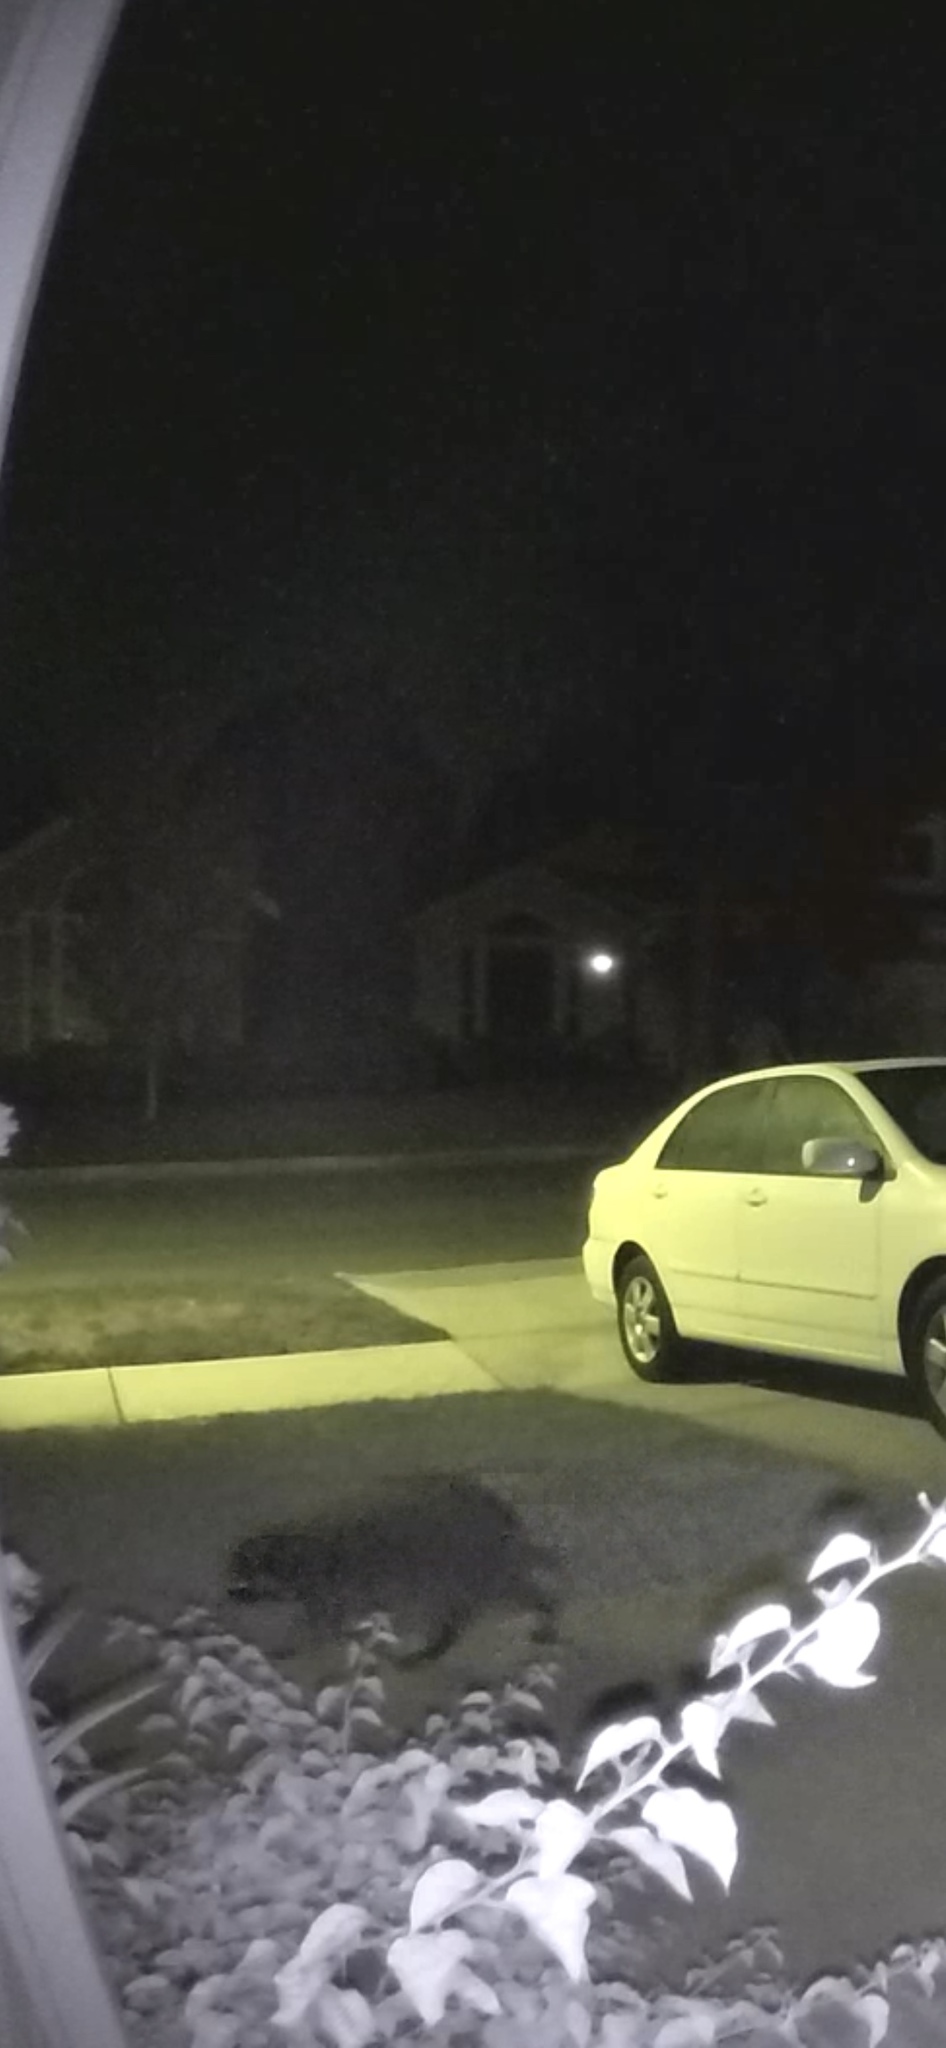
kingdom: Animalia
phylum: Chordata
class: Mammalia
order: Carnivora
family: Procyonidae
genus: Procyon
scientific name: Procyon lotor
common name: Raccoon
